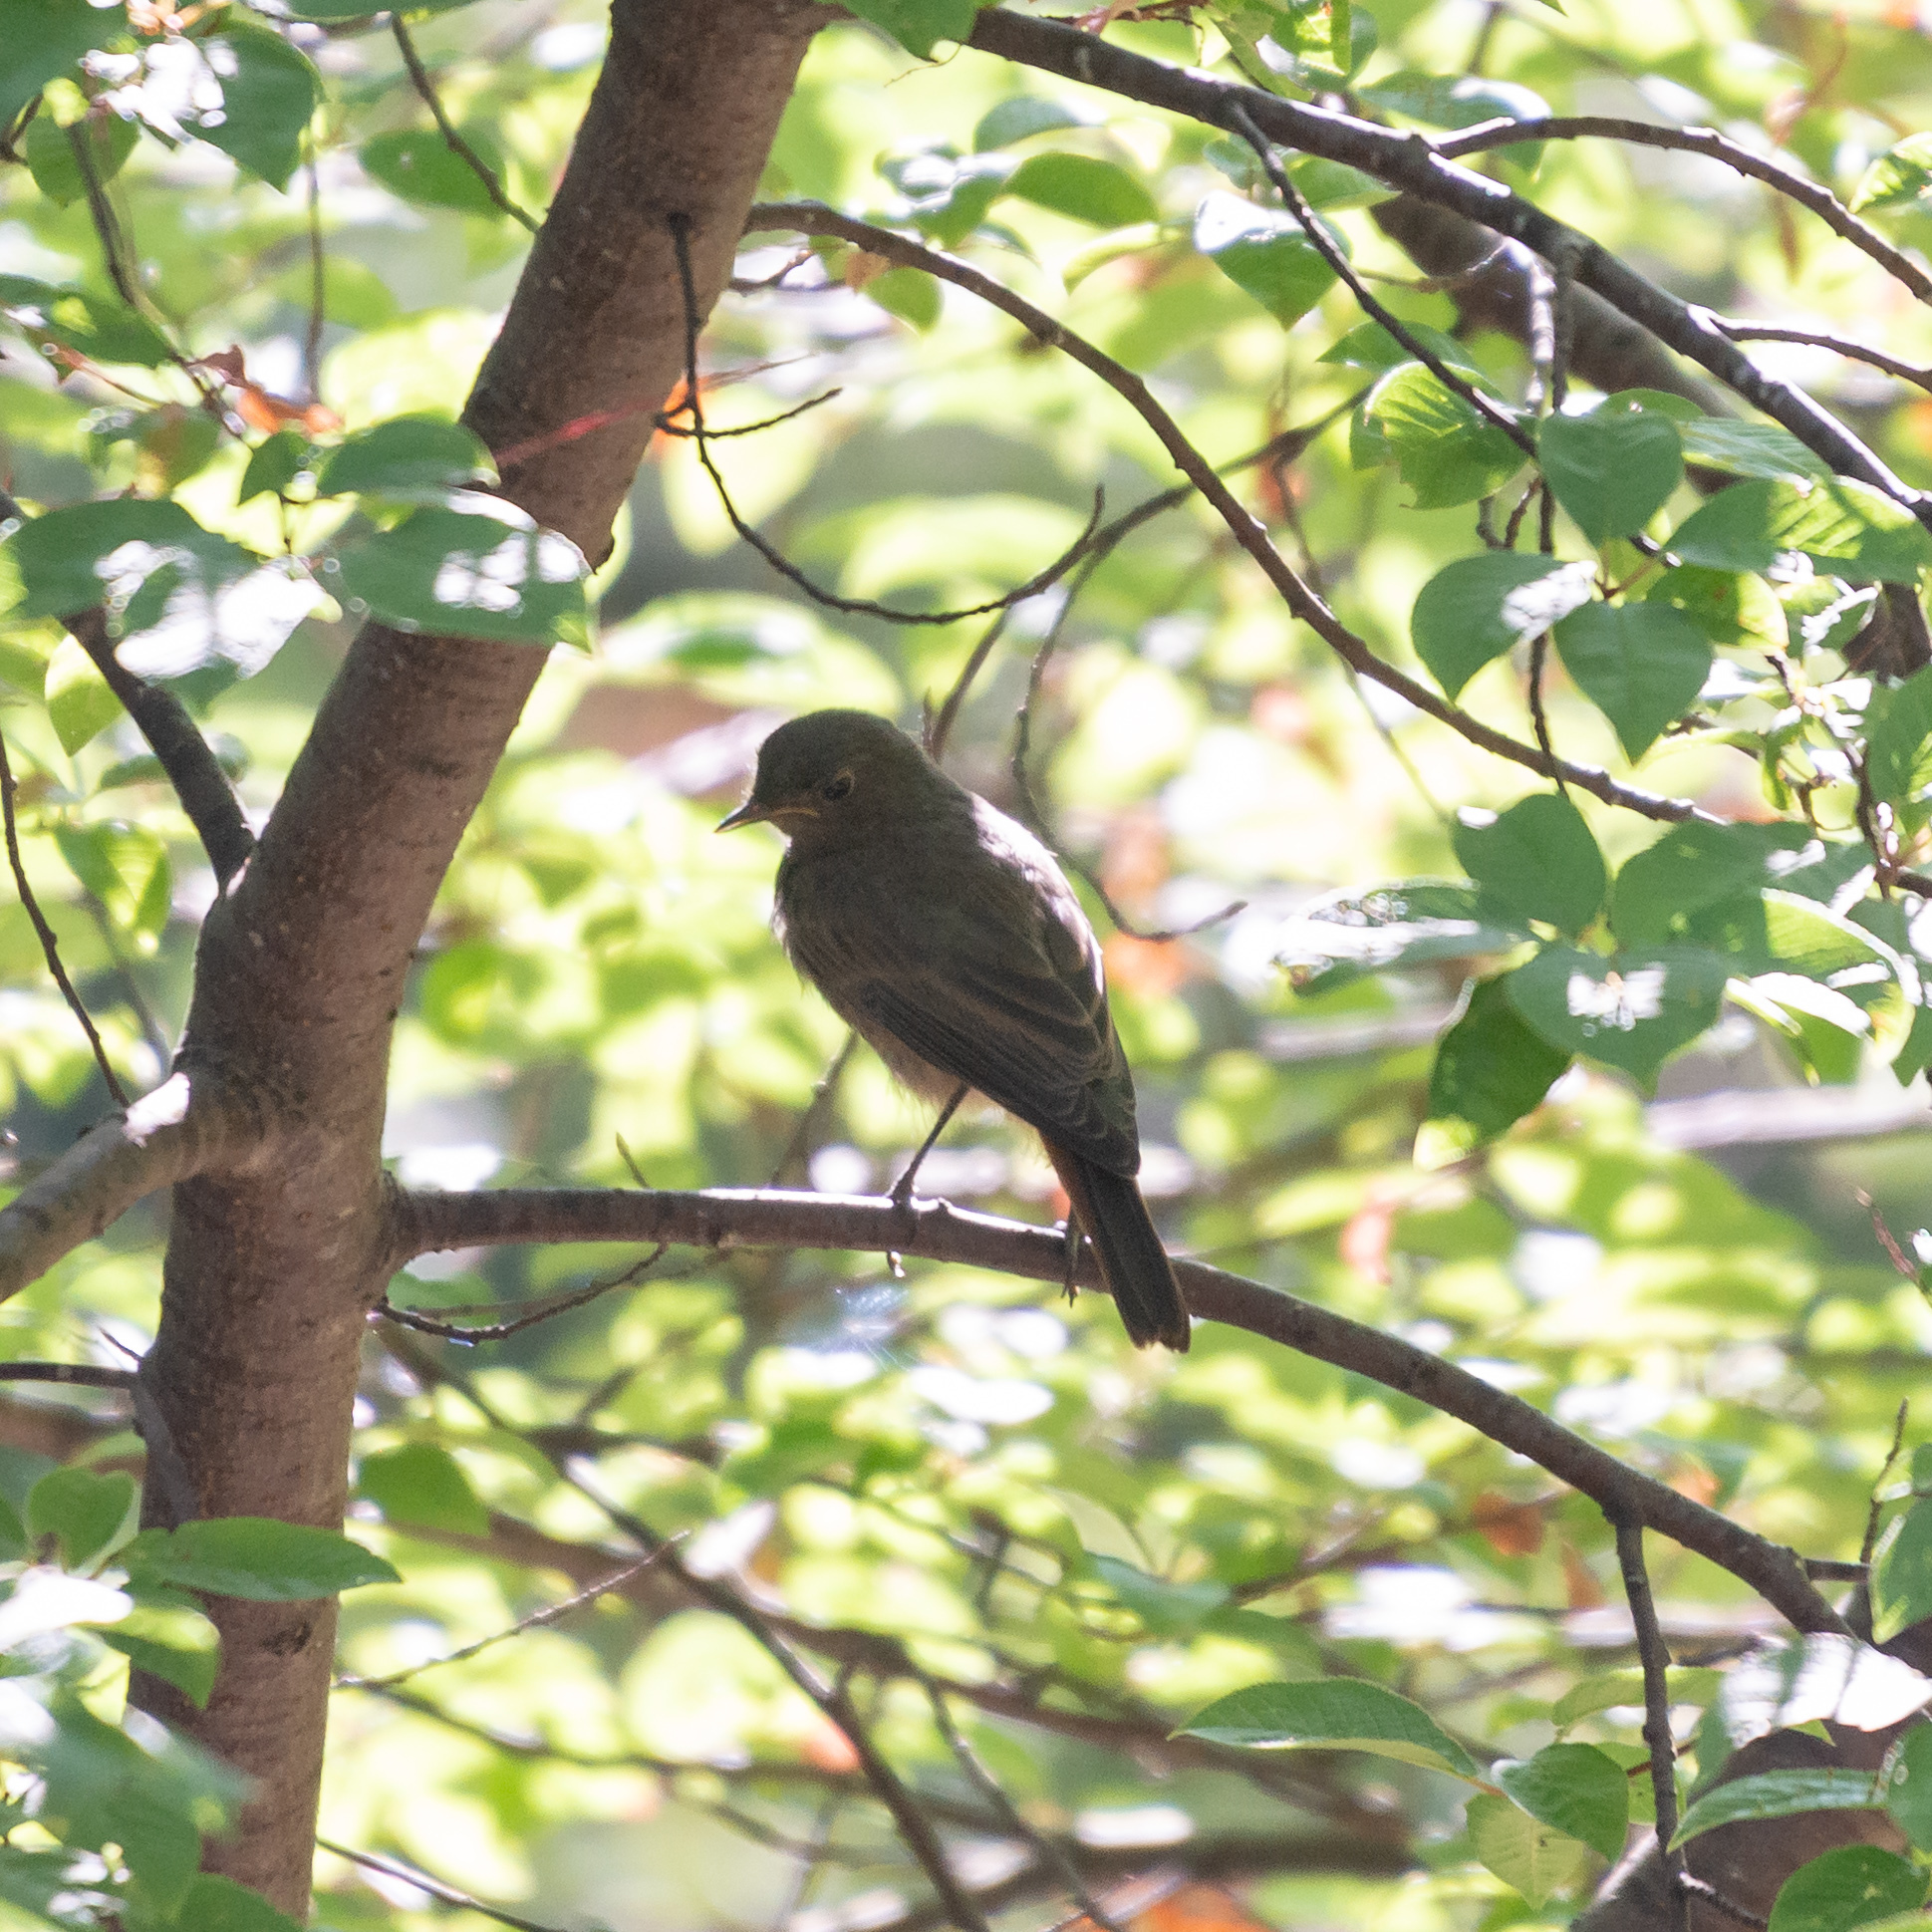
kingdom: Animalia
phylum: Chordata
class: Aves
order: Passeriformes
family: Muscicapidae
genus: Phoenicurus
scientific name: Phoenicurus ochruros
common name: Black redstart
